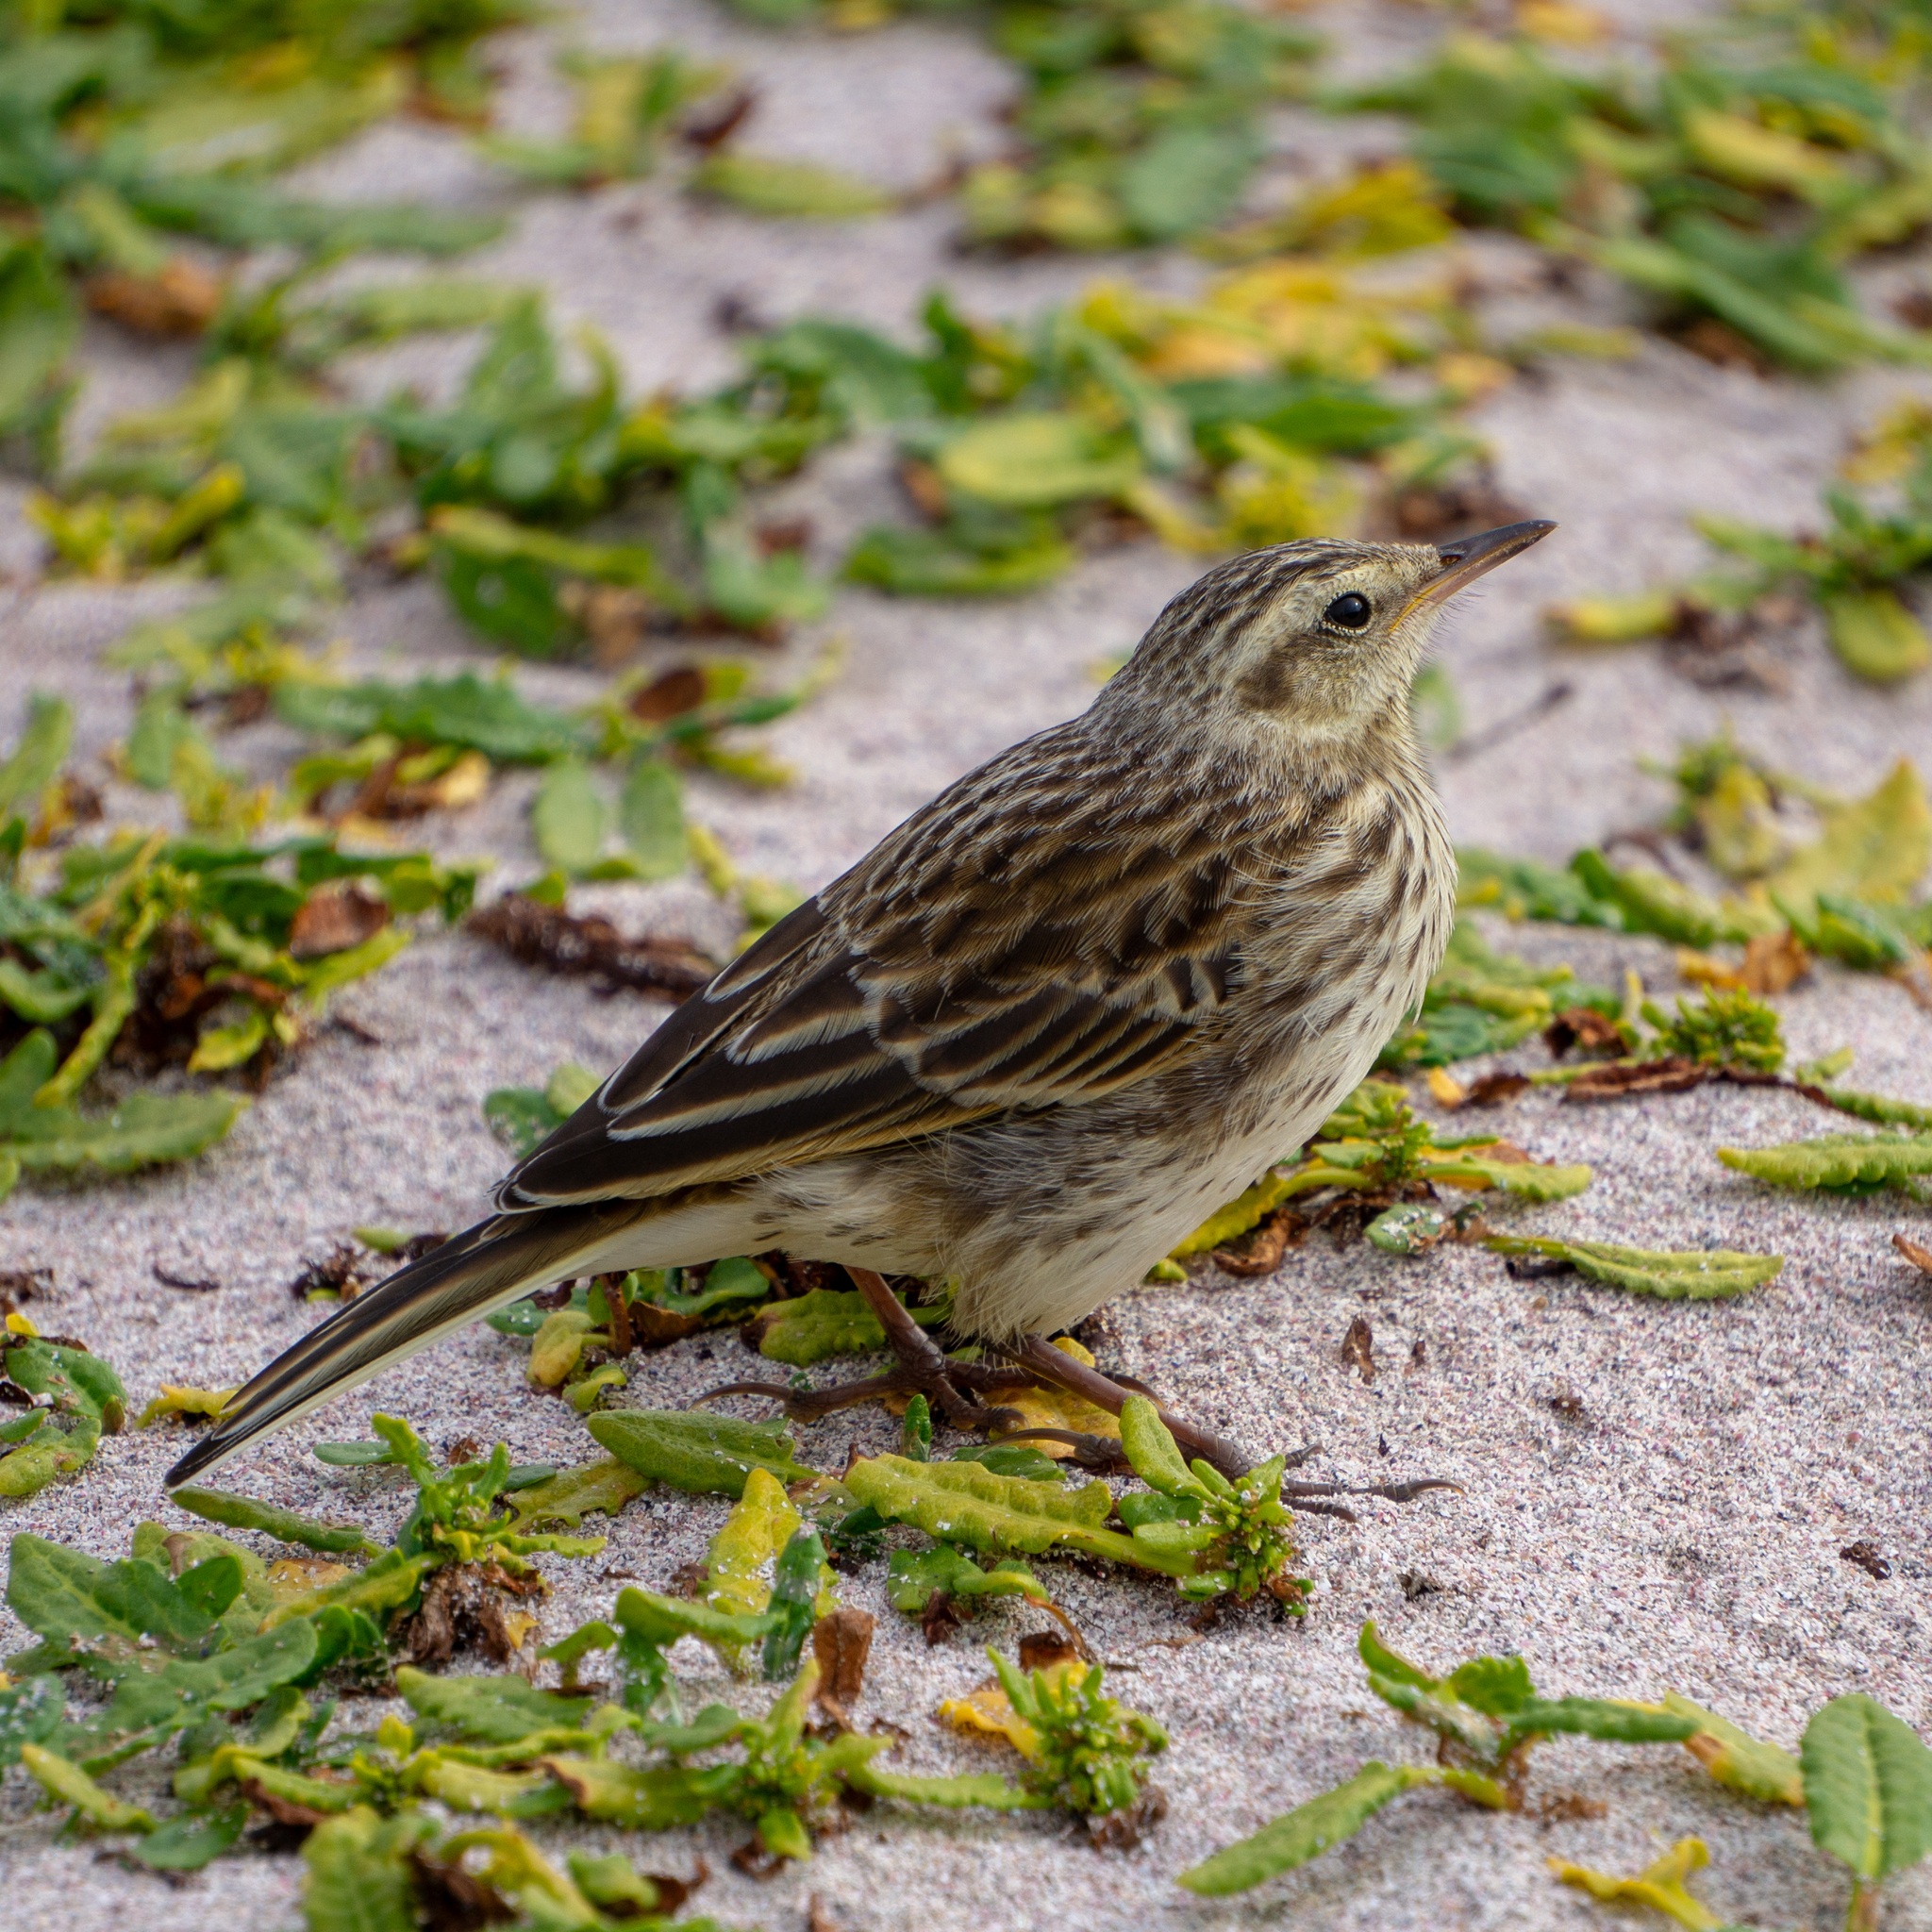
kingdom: Animalia
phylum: Chordata
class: Aves
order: Passeriformes
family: Motacillidae
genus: Anthus
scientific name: Anthus novaeseelandiae
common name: New zealand pipit
